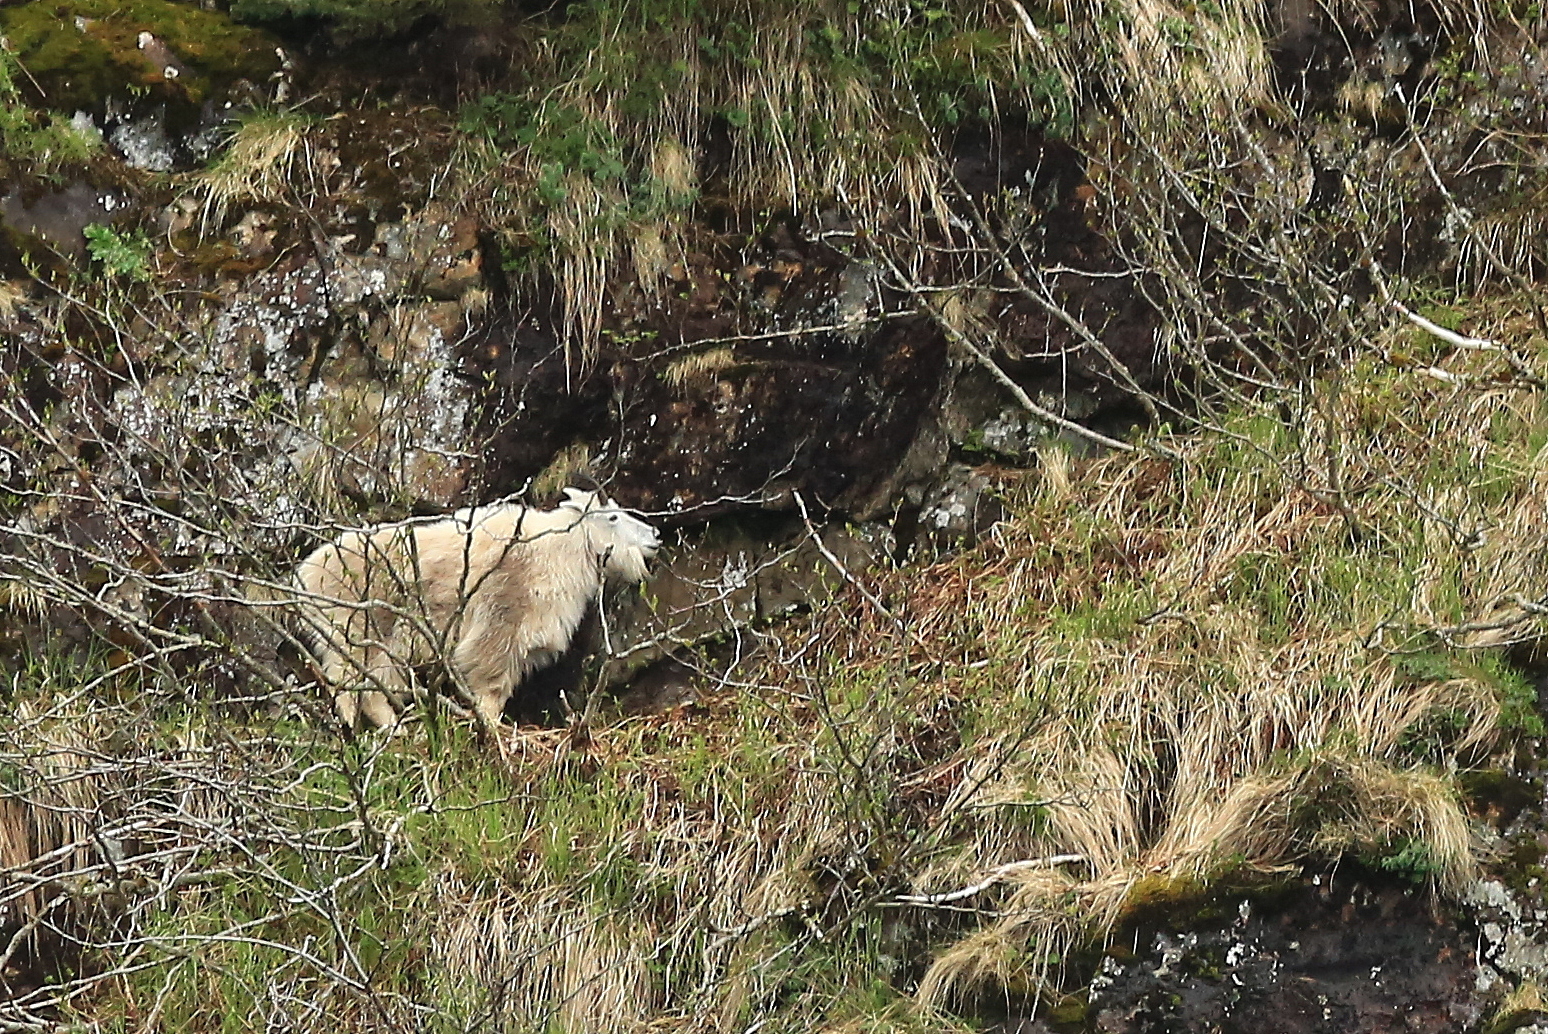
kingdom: Animalia
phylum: Chordata
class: Mammalia
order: Artiodactyla
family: Bovidae
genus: Oreamnos
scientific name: Oreamnos americanus
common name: Mountain goat
